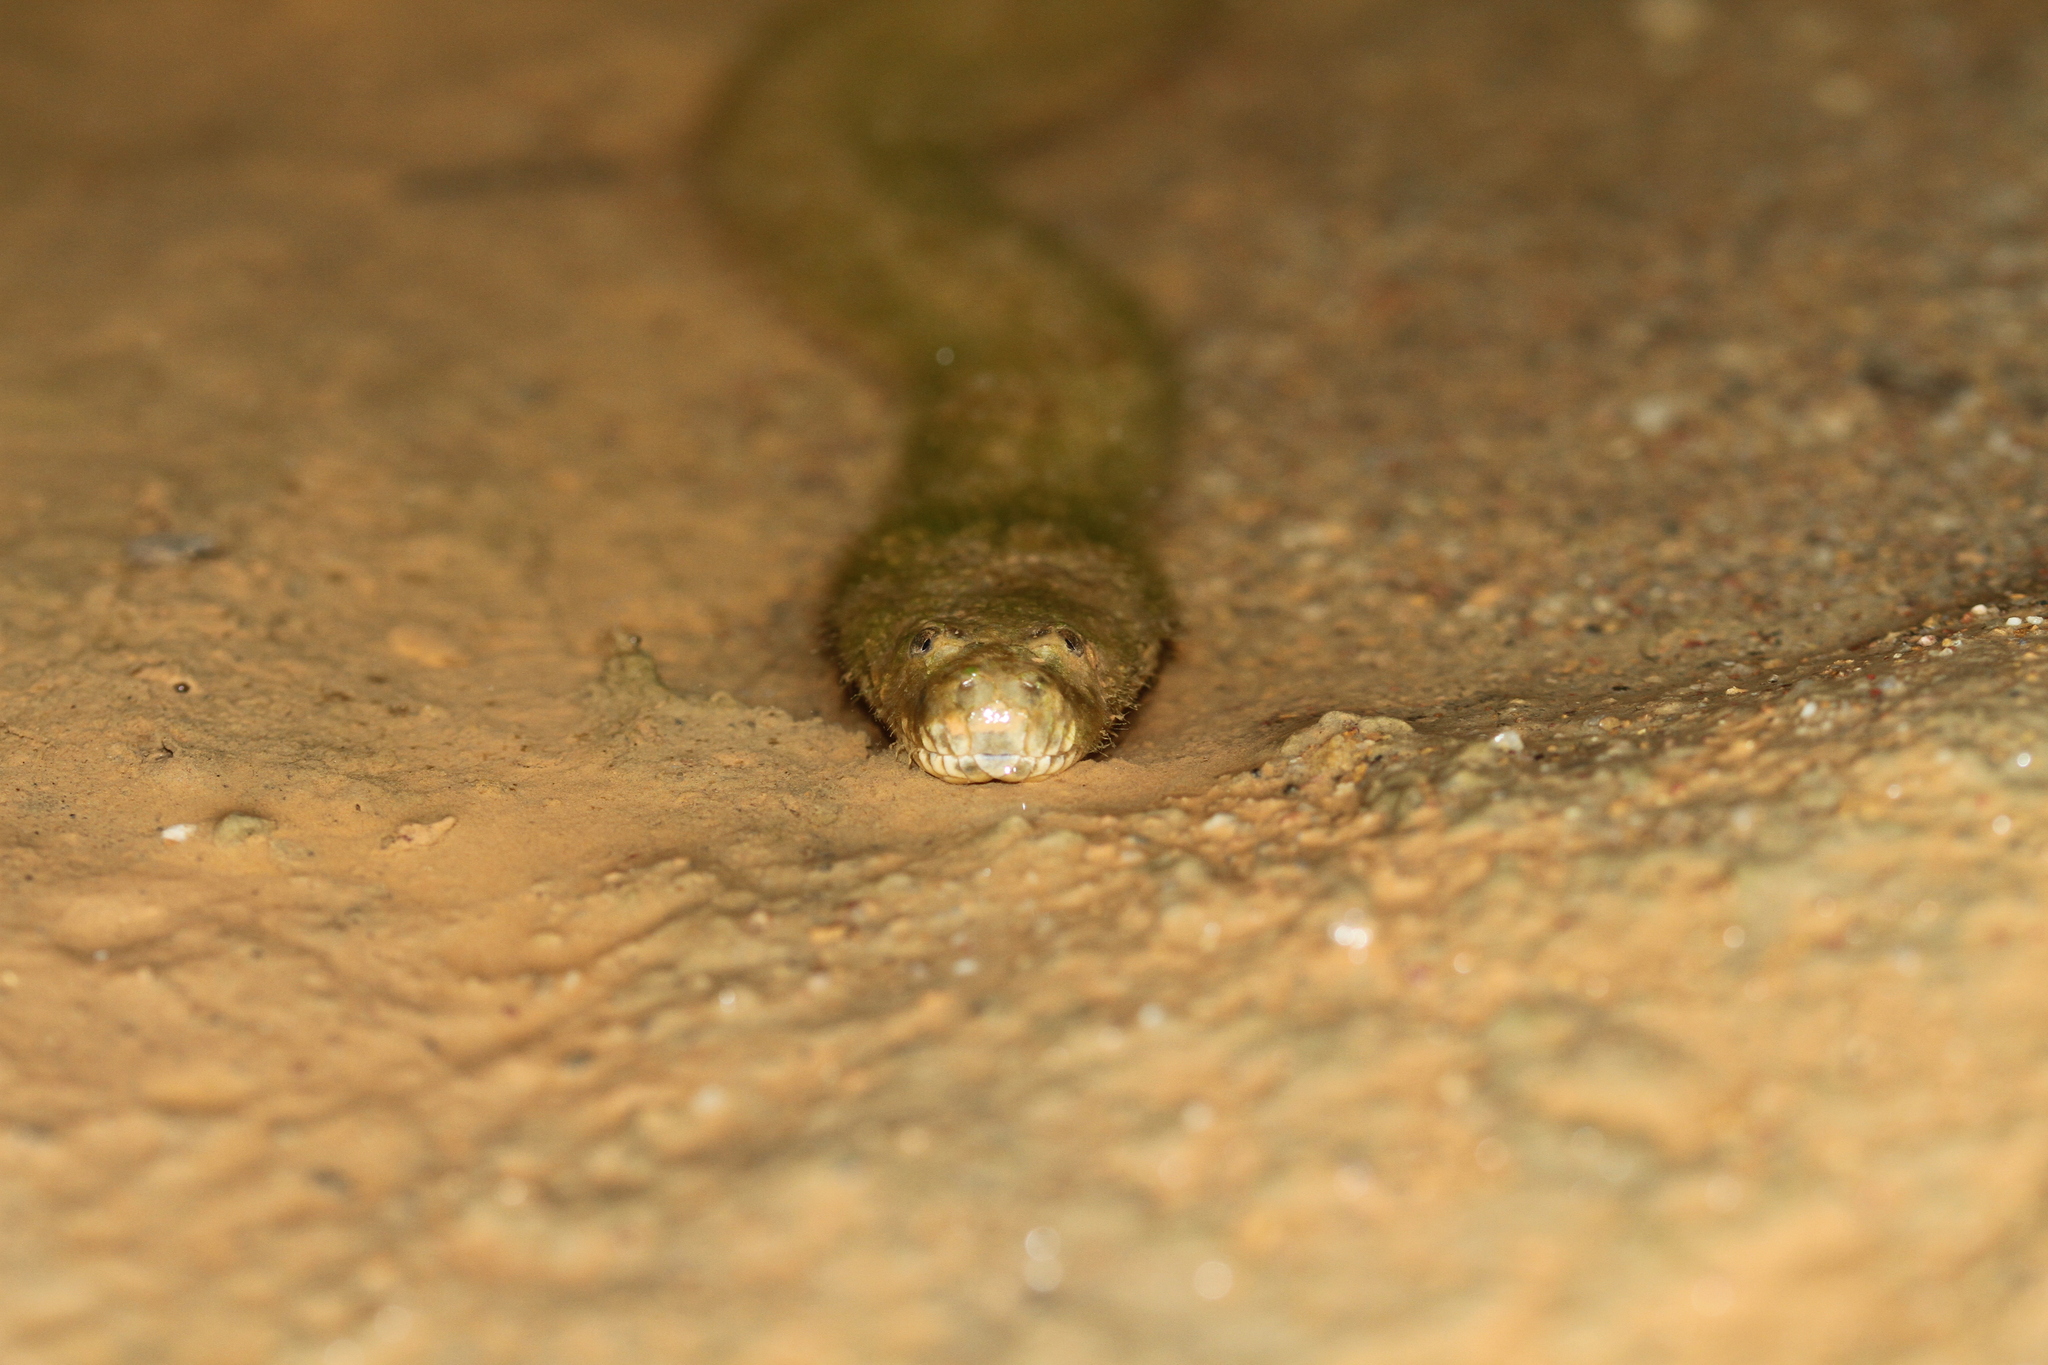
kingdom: Animalia
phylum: Chordata
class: Squamata
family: Homalopsidae
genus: Cerberus
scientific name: Cerberus schneiderii
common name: Southeast asian bockadam
